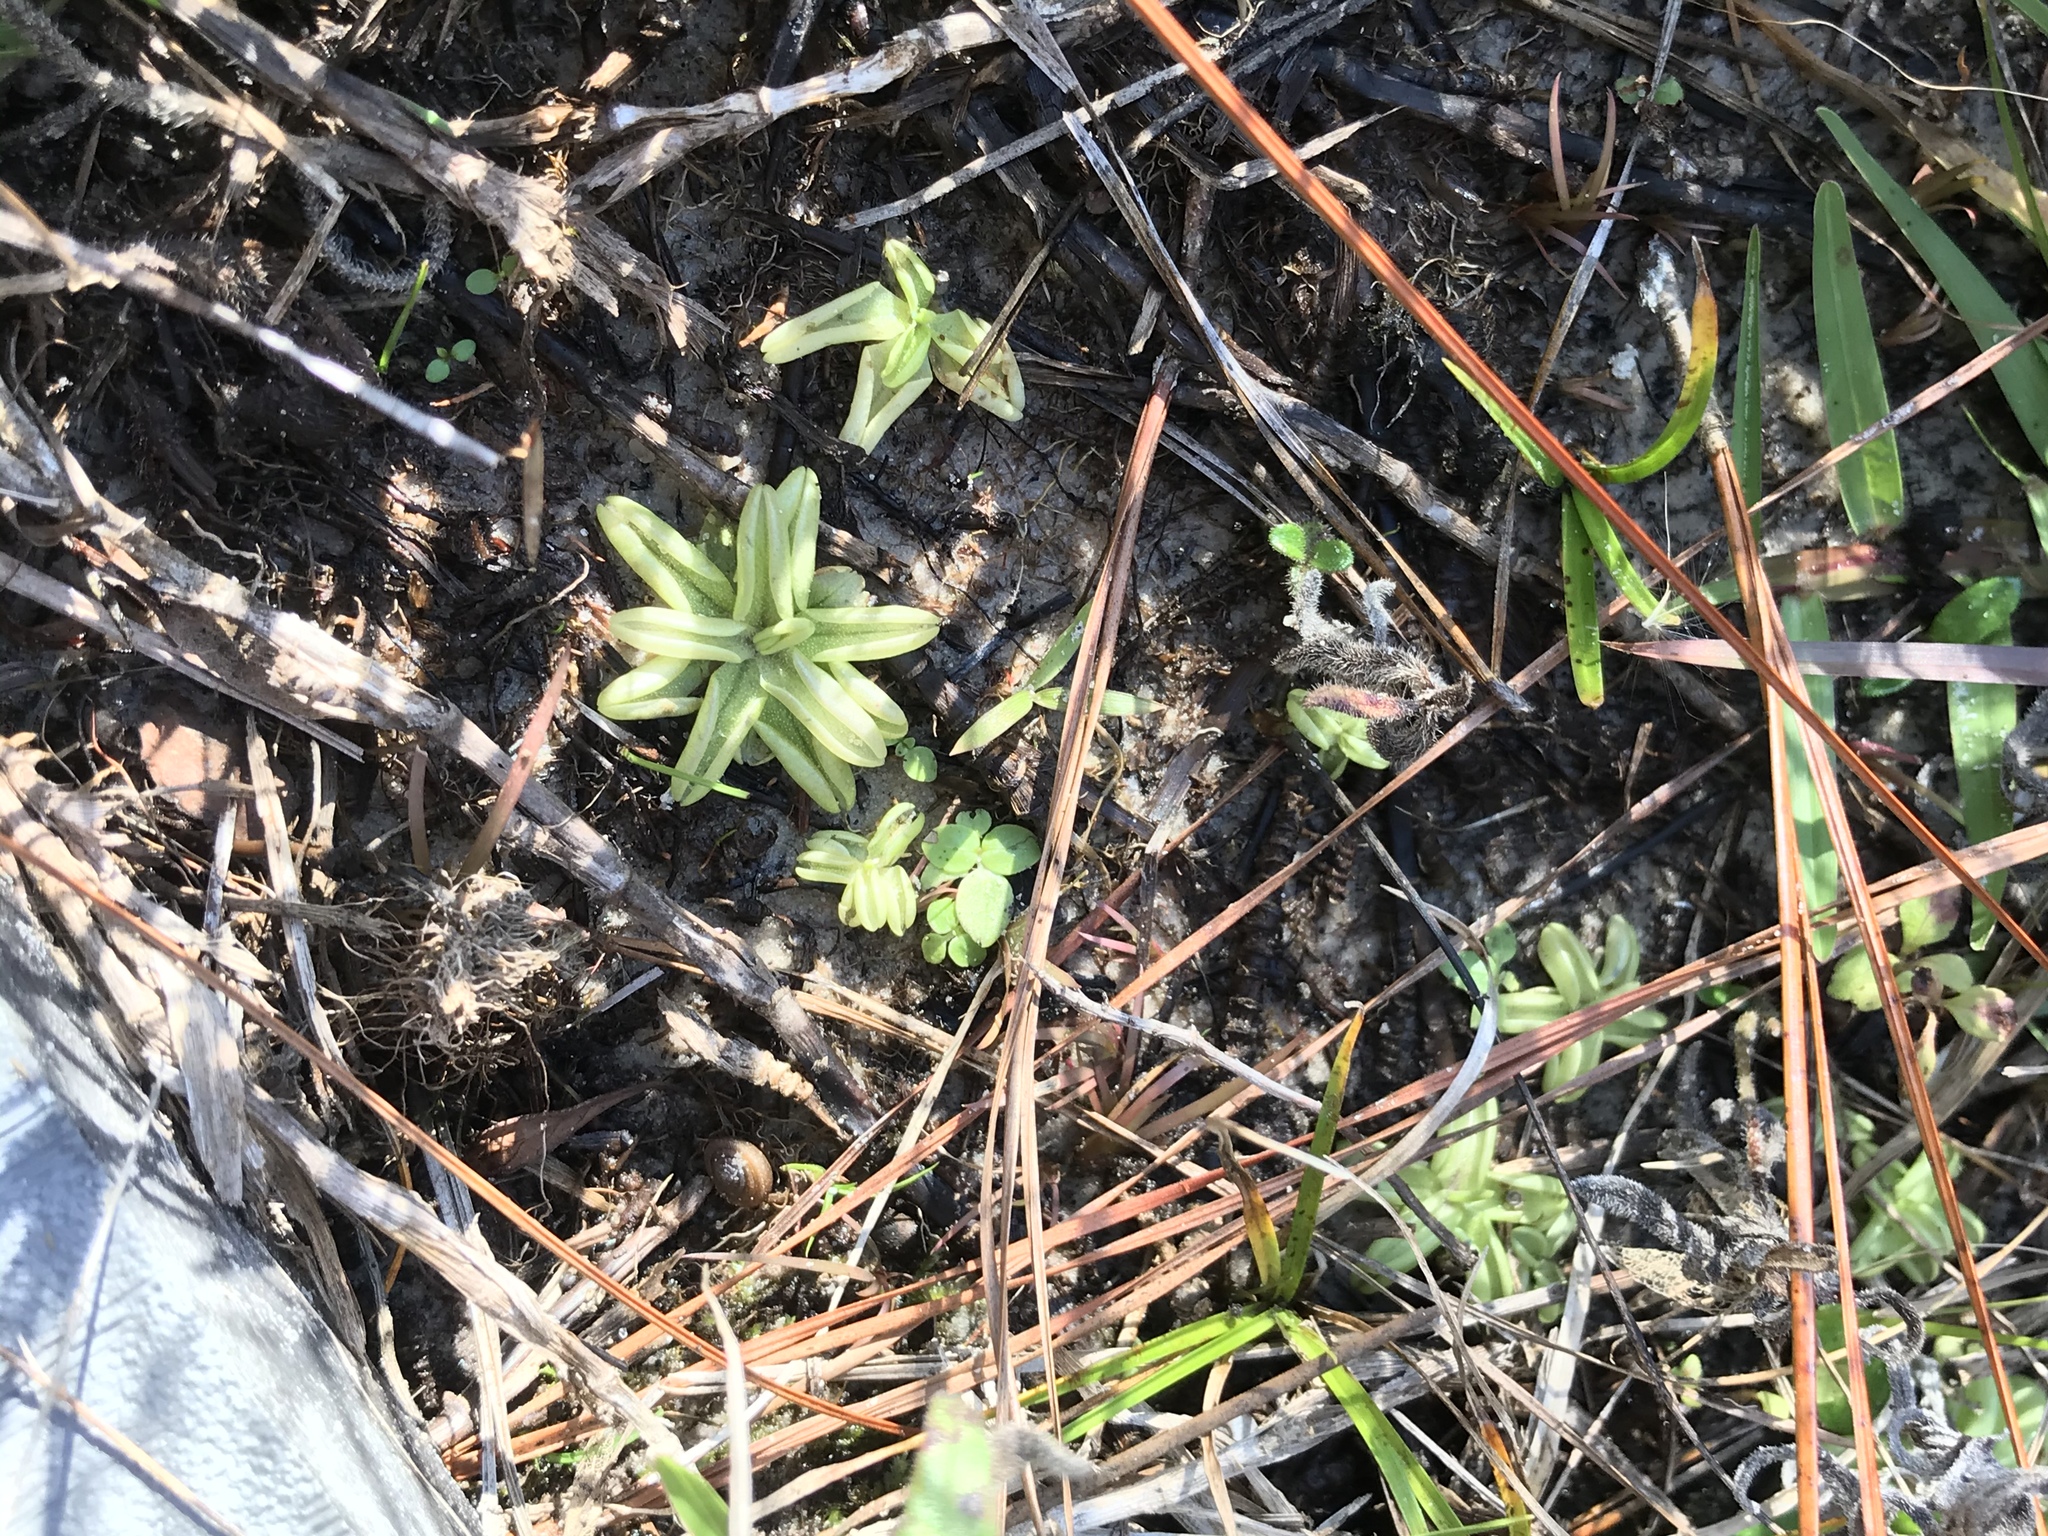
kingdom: Plantae
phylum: Tracheophyta
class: Magnoliopsida
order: Lamiales
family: Lentibulariaceae
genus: Pinguicula
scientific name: Pinguicula pumila
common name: Small butterwort
